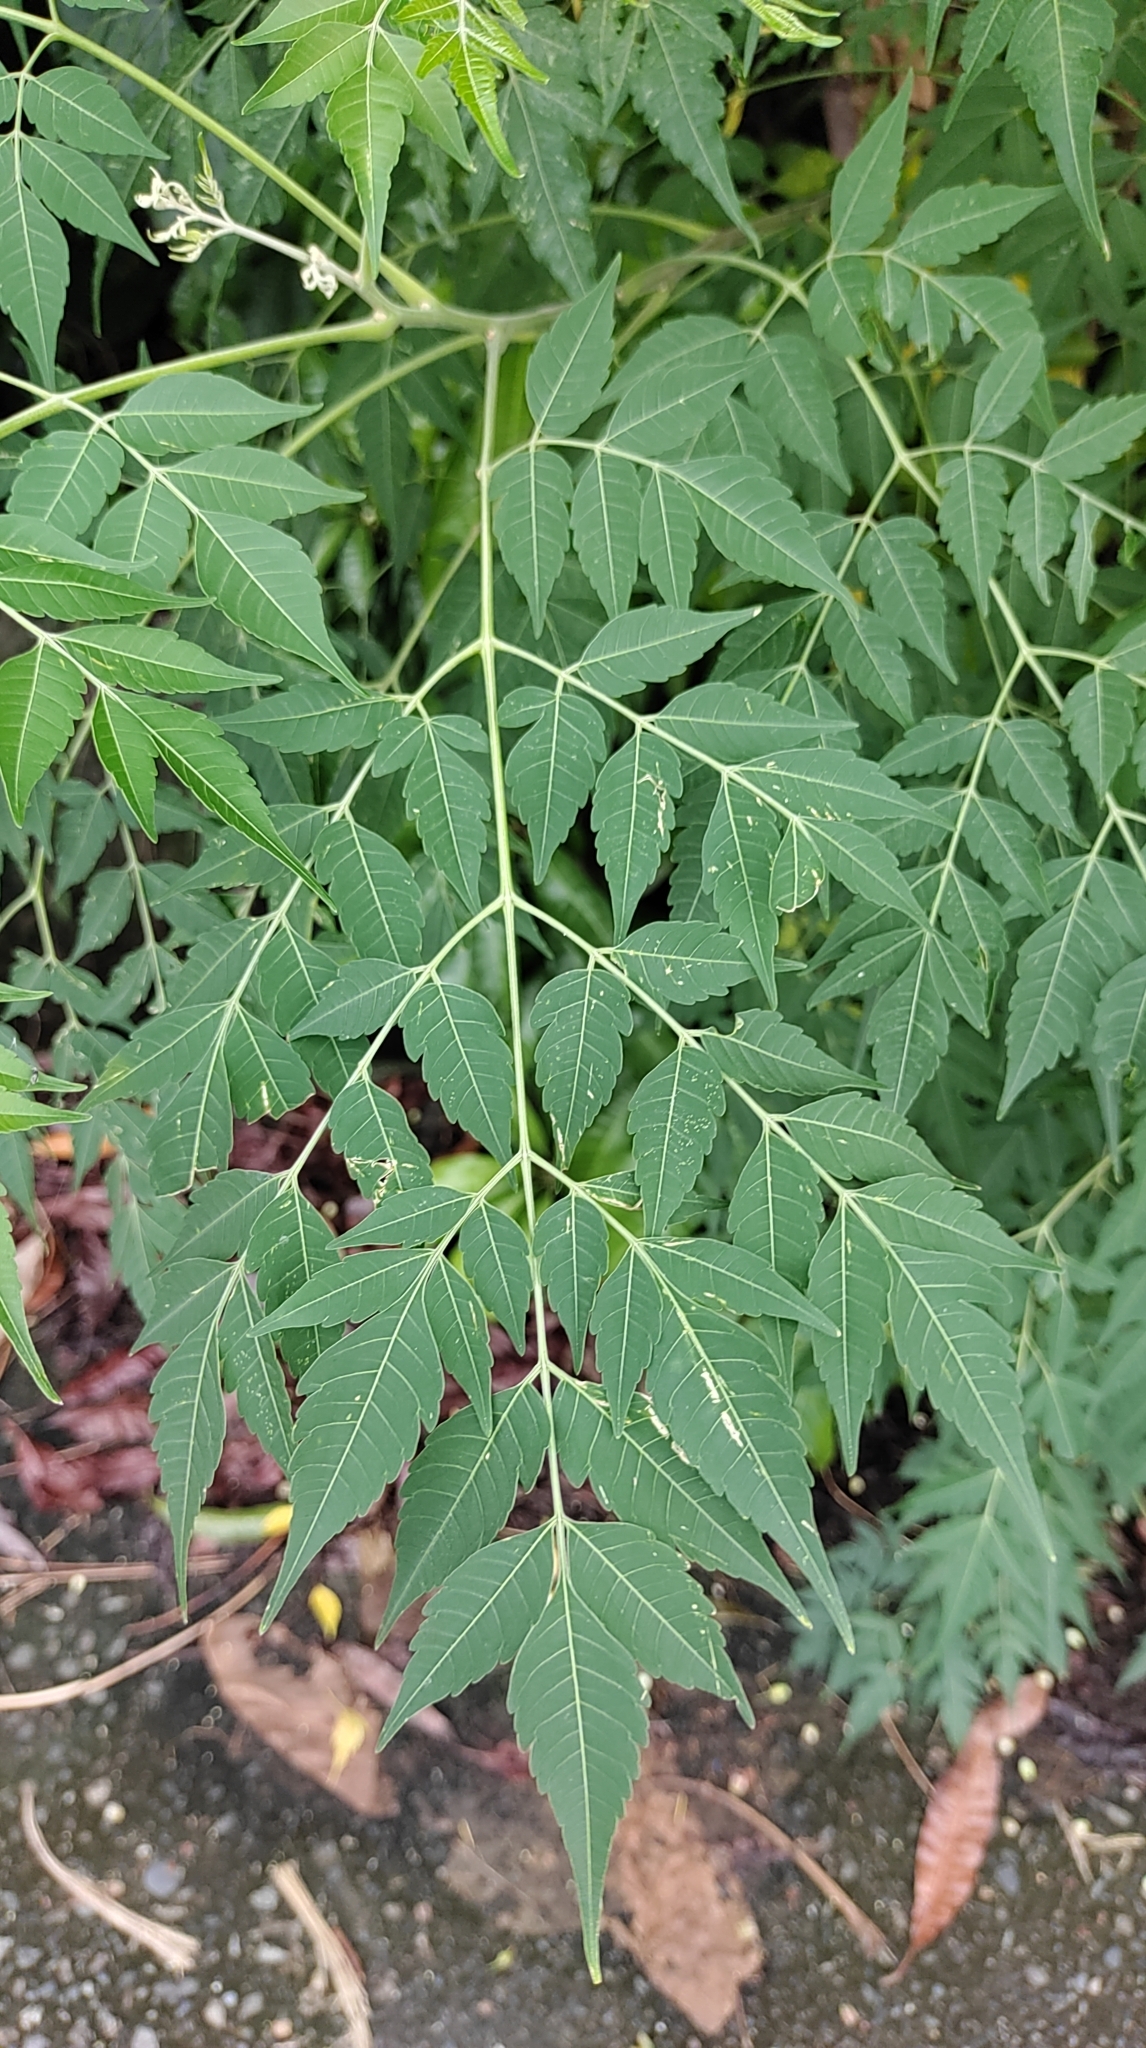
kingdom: Plantae
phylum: Tracheophyta
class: Magnoliopsida
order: Sapindales
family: Sapindaceae
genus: Koelreuteria
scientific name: Koelreuteria elegans
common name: Chinese flame tree
